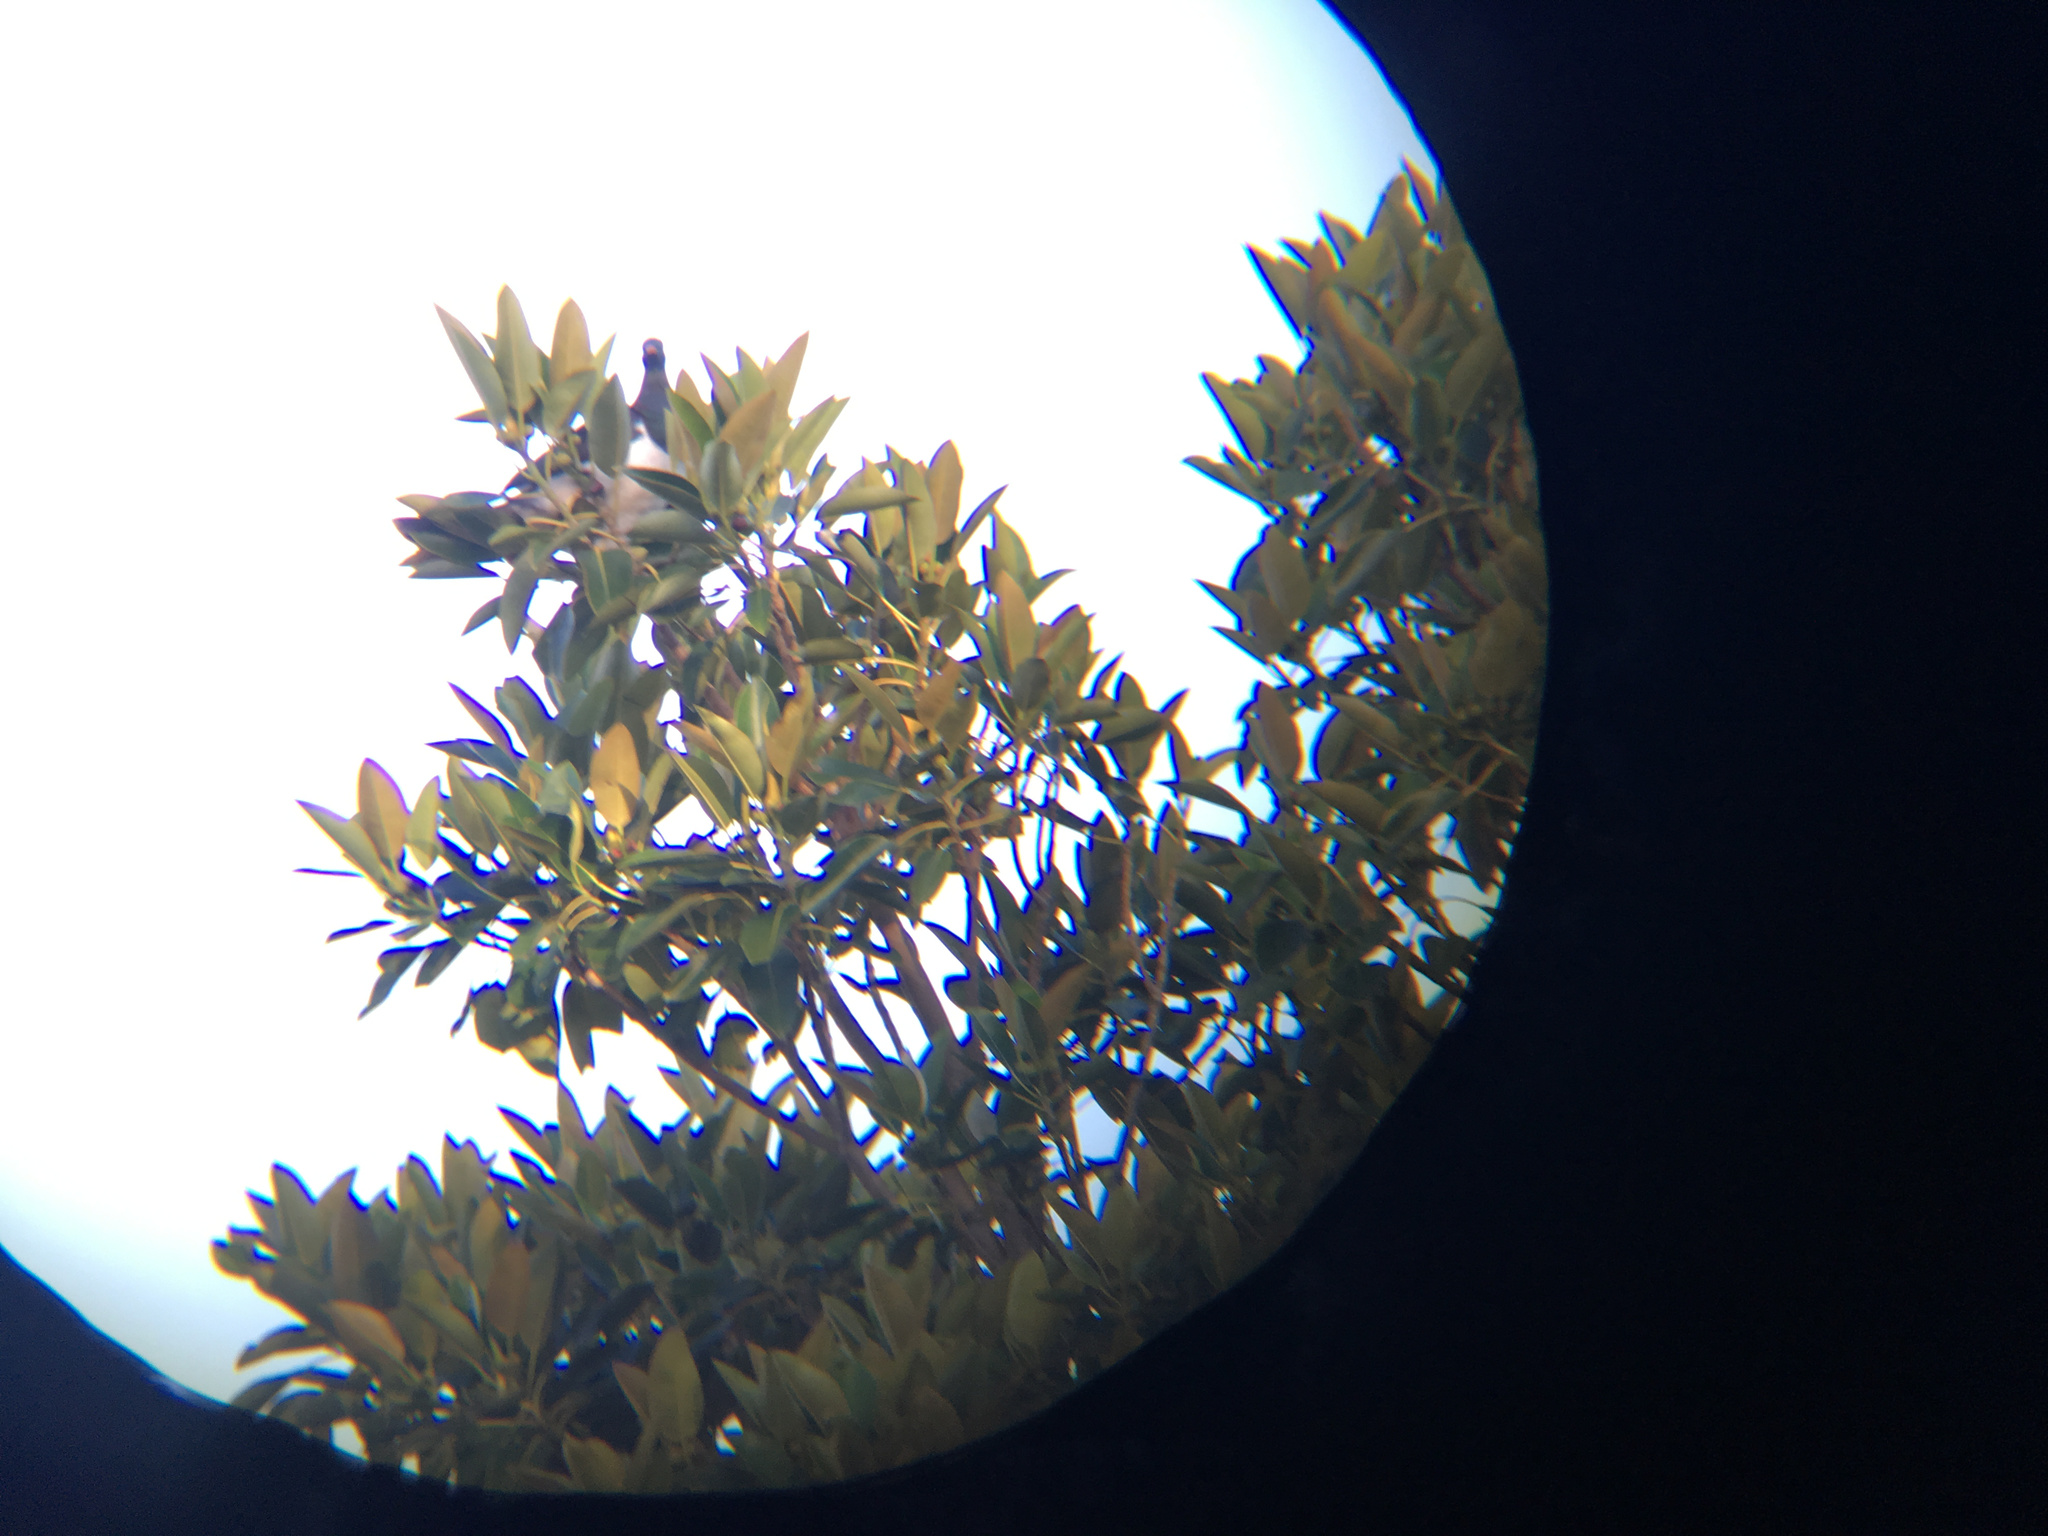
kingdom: Animalia
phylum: Chordata
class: Aves
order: Columbiformes
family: Columbidae
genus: Hemiphaga
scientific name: Hemiphaga novaeseelandiae
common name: New zealand pigeon
